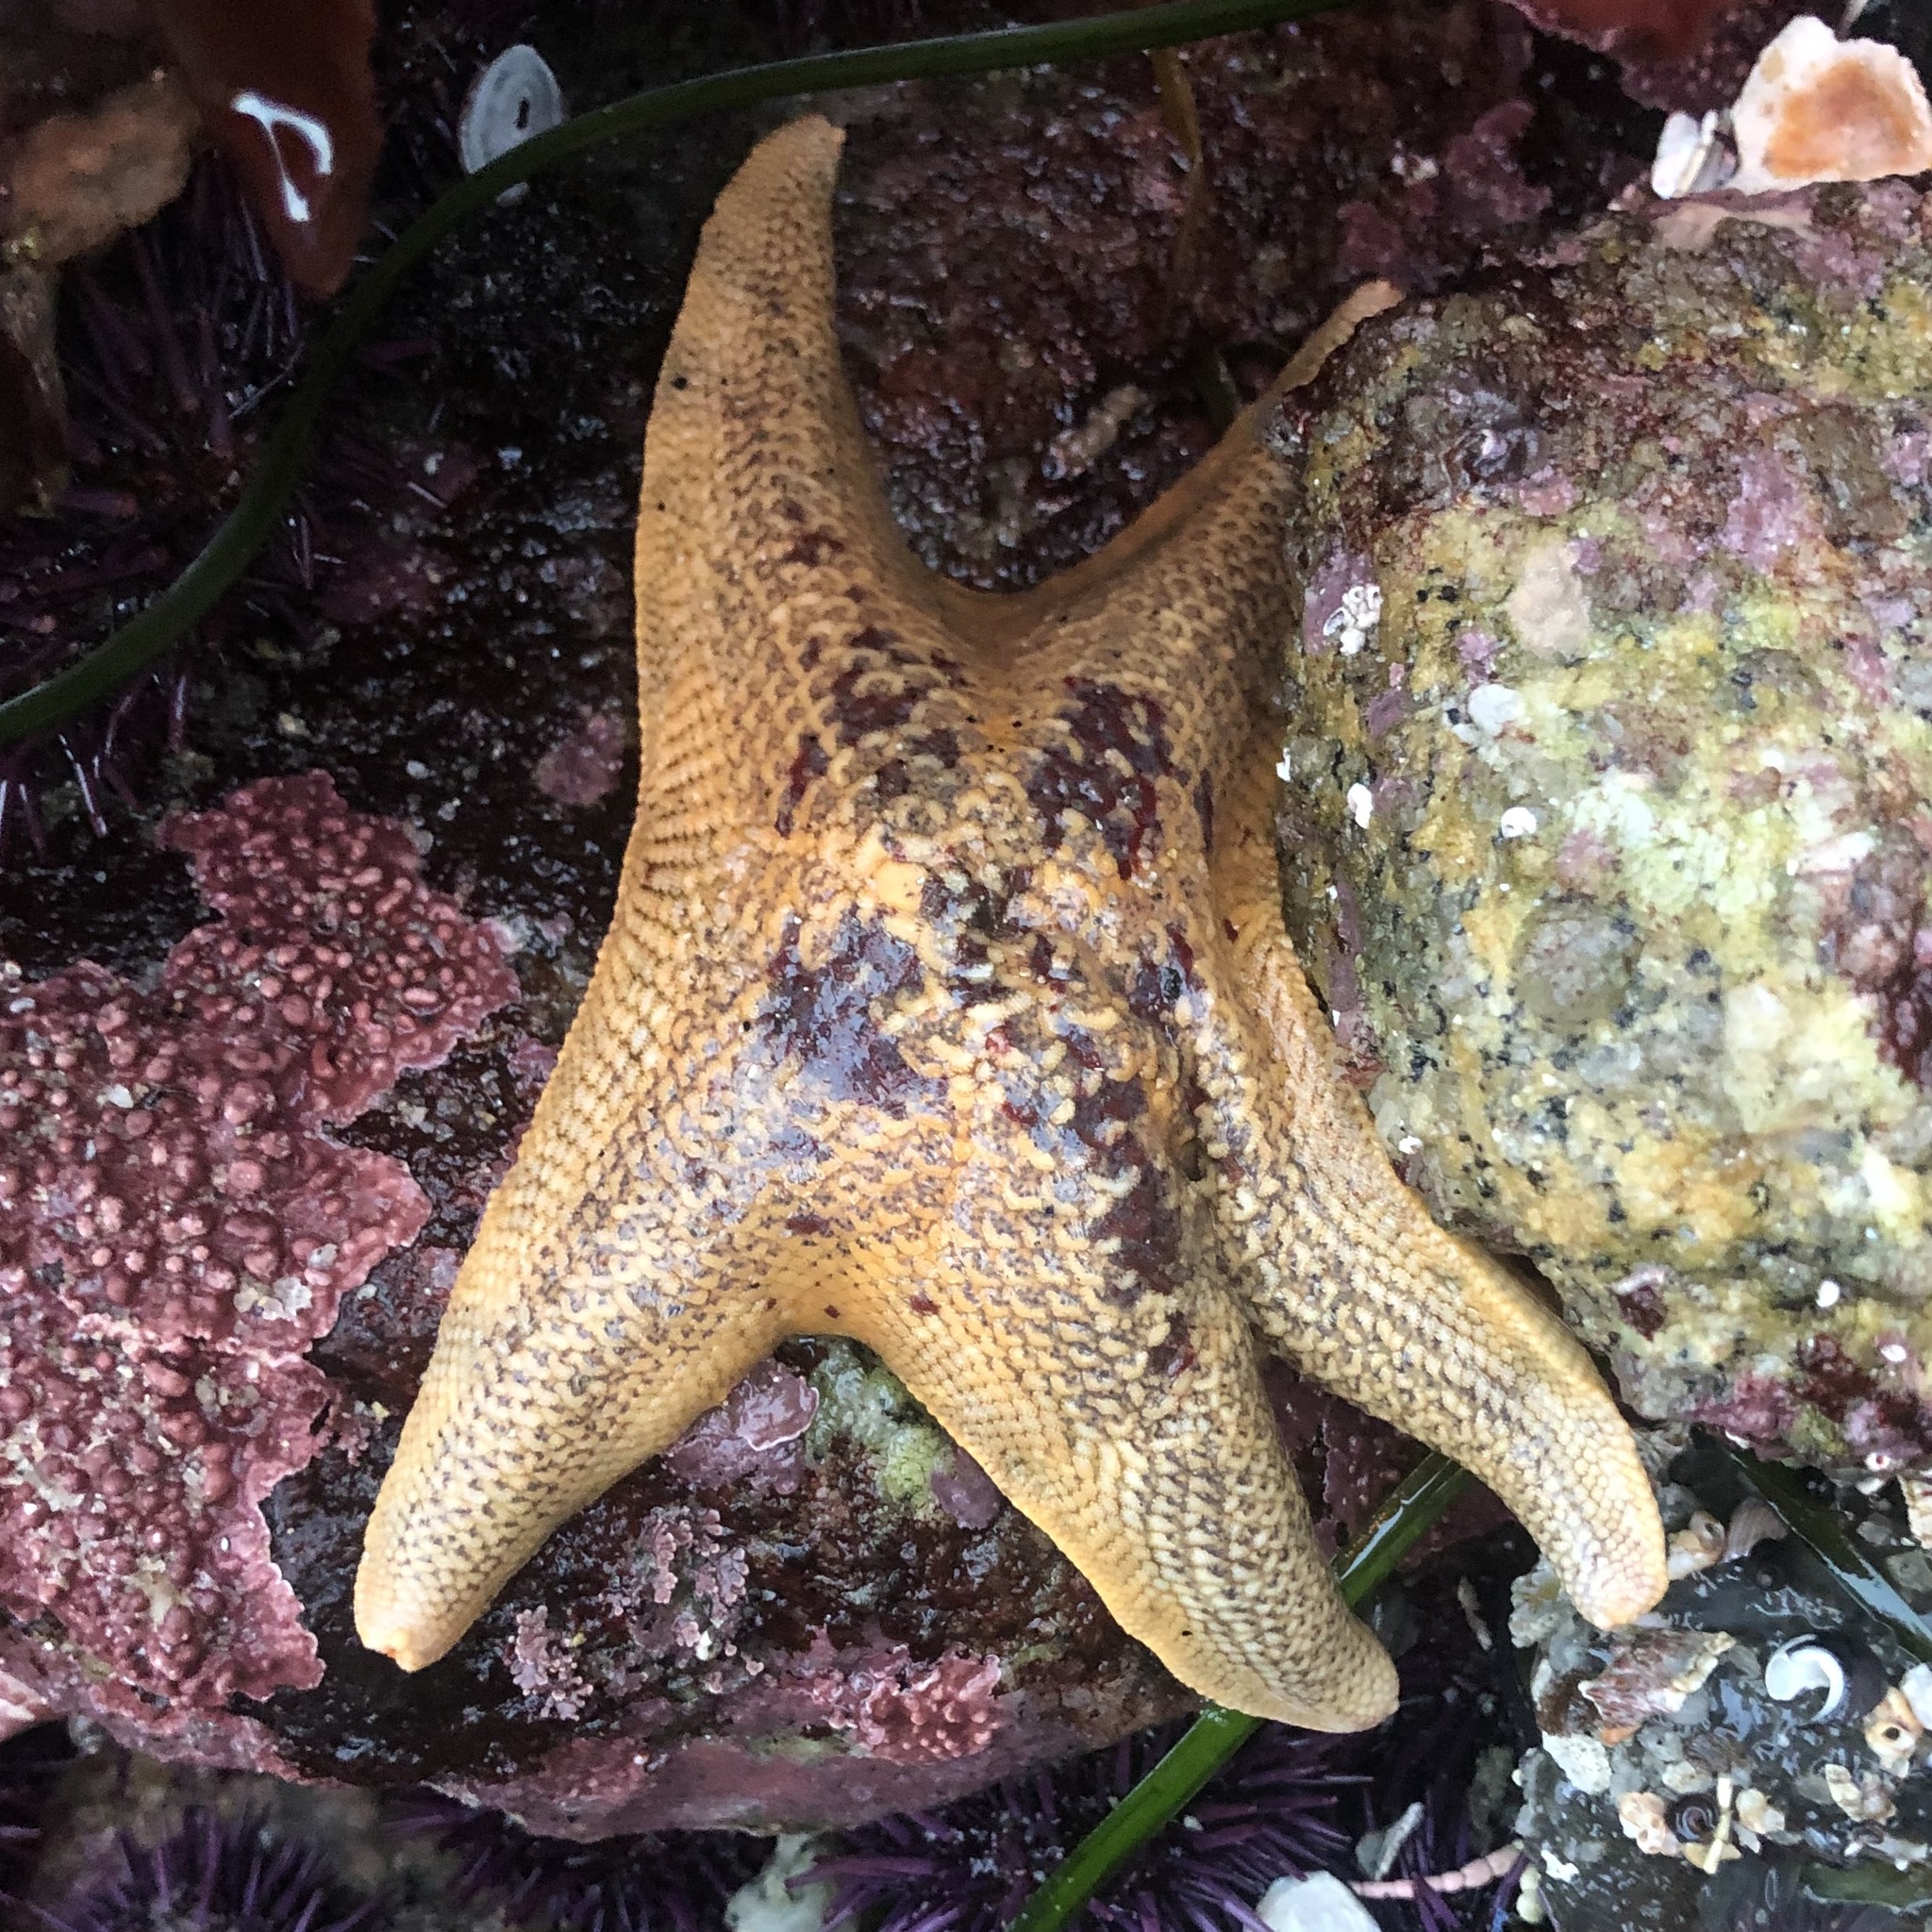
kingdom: Animalia
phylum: Echinodermata
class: Asteroidea
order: Valvatida
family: Asterinidae
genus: Patiria
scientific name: Patiria miniata
